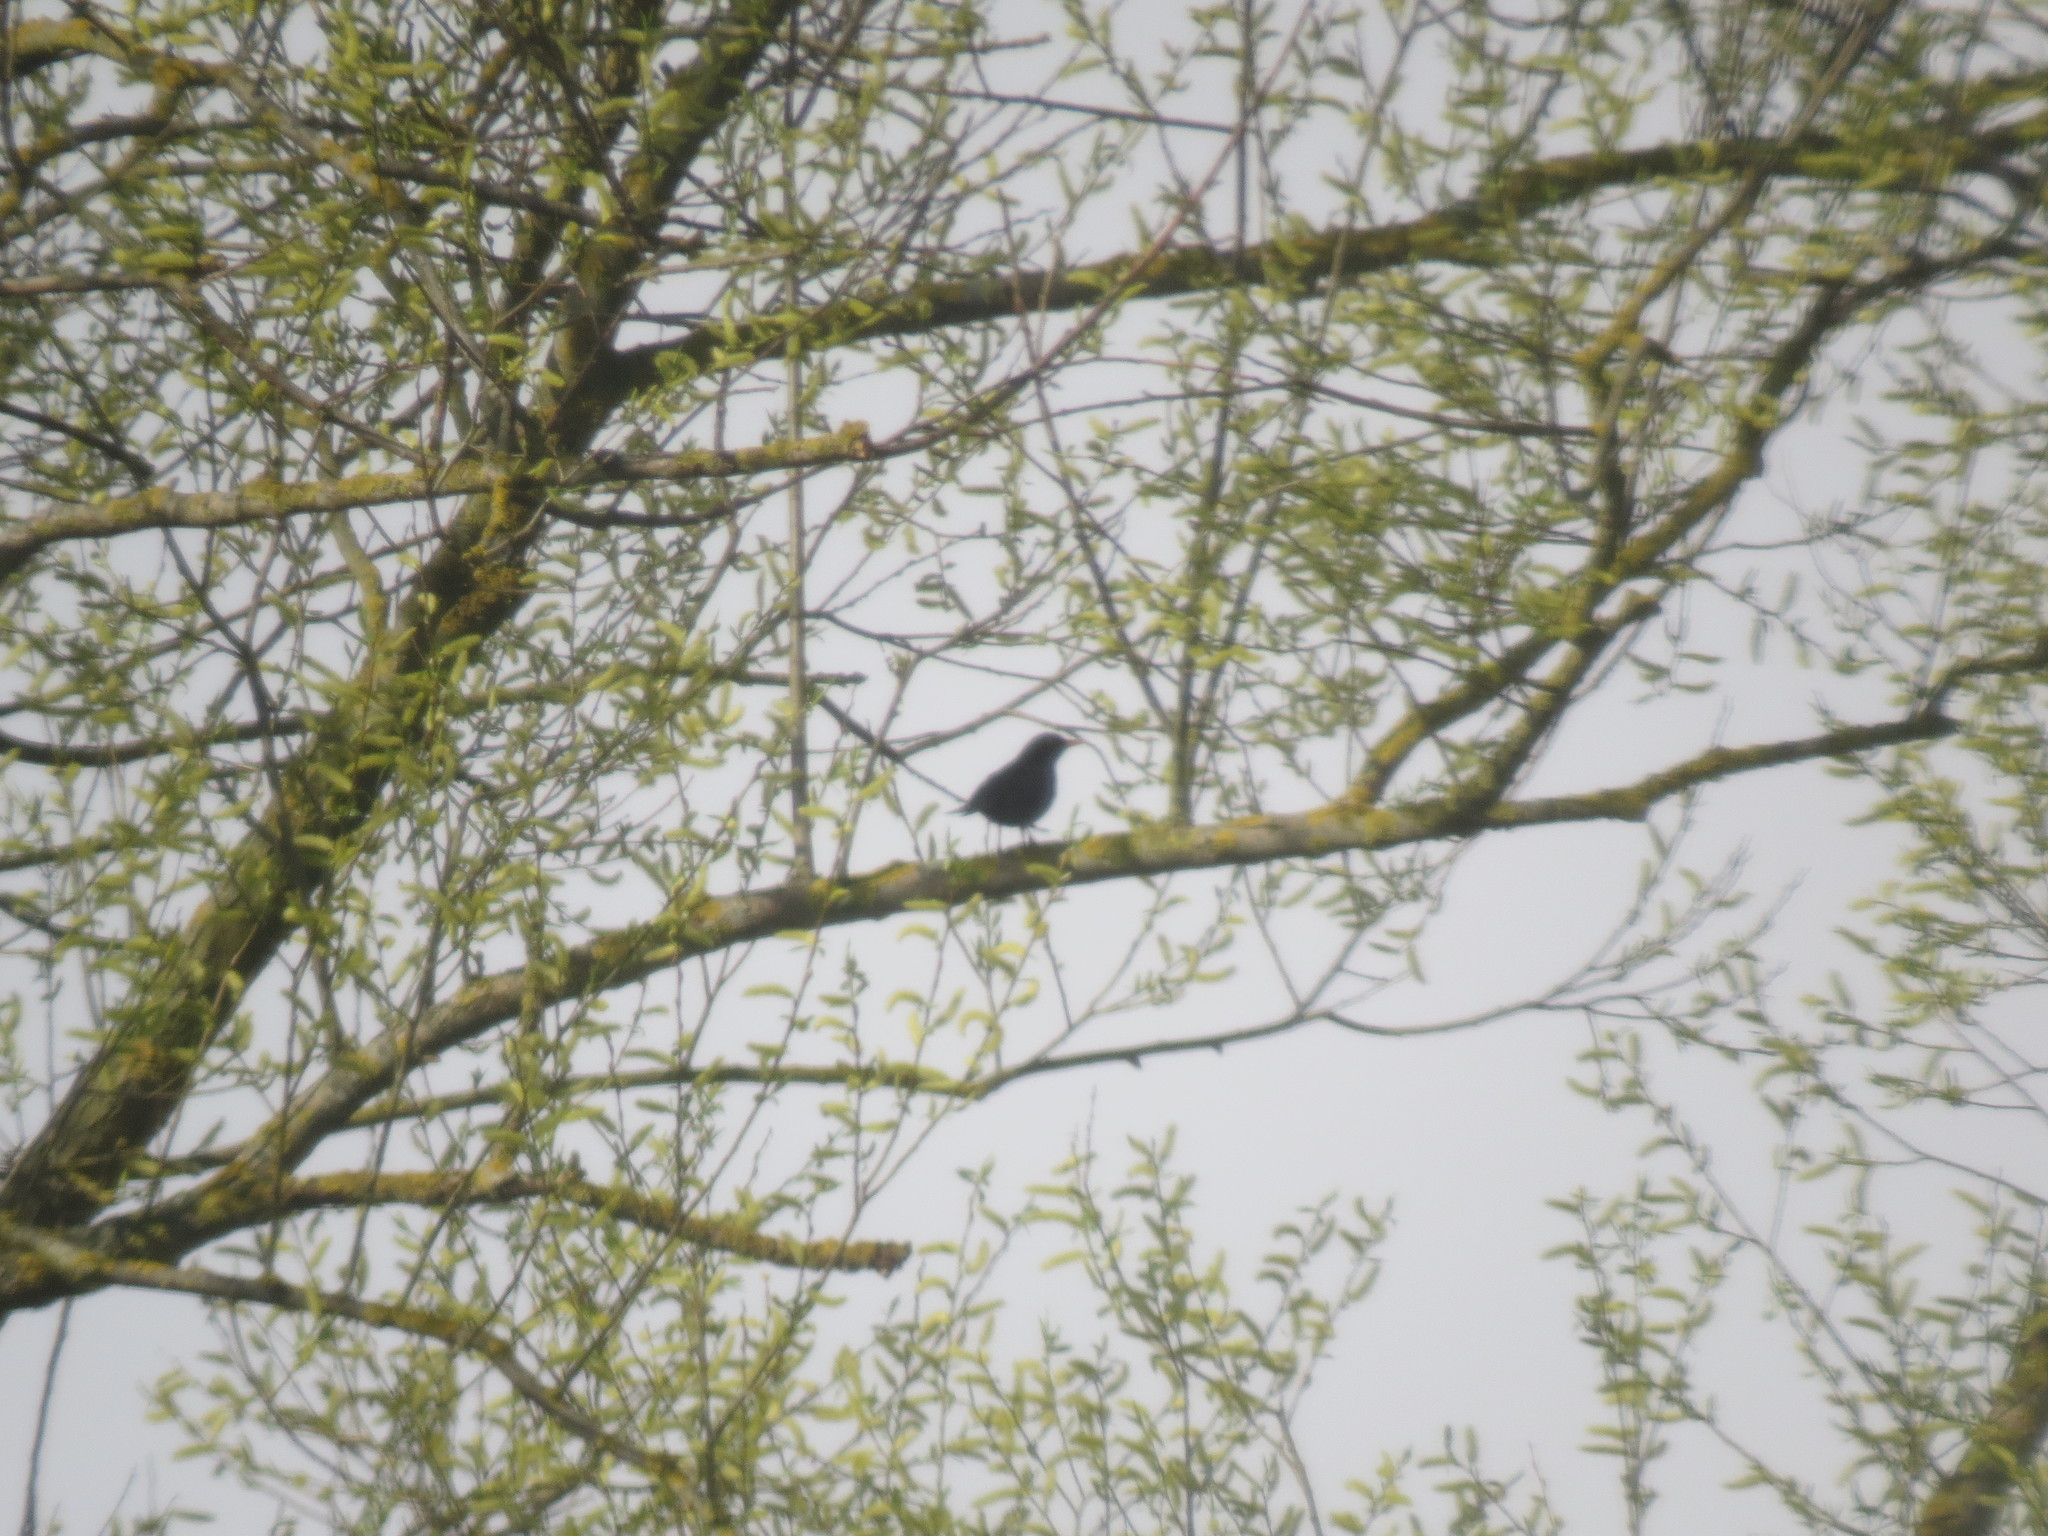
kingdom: Animalia
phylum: Chordata
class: Aves
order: Passeriformes
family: Turdidae
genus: Turdus
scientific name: Turdus merula
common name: Common blackbird
